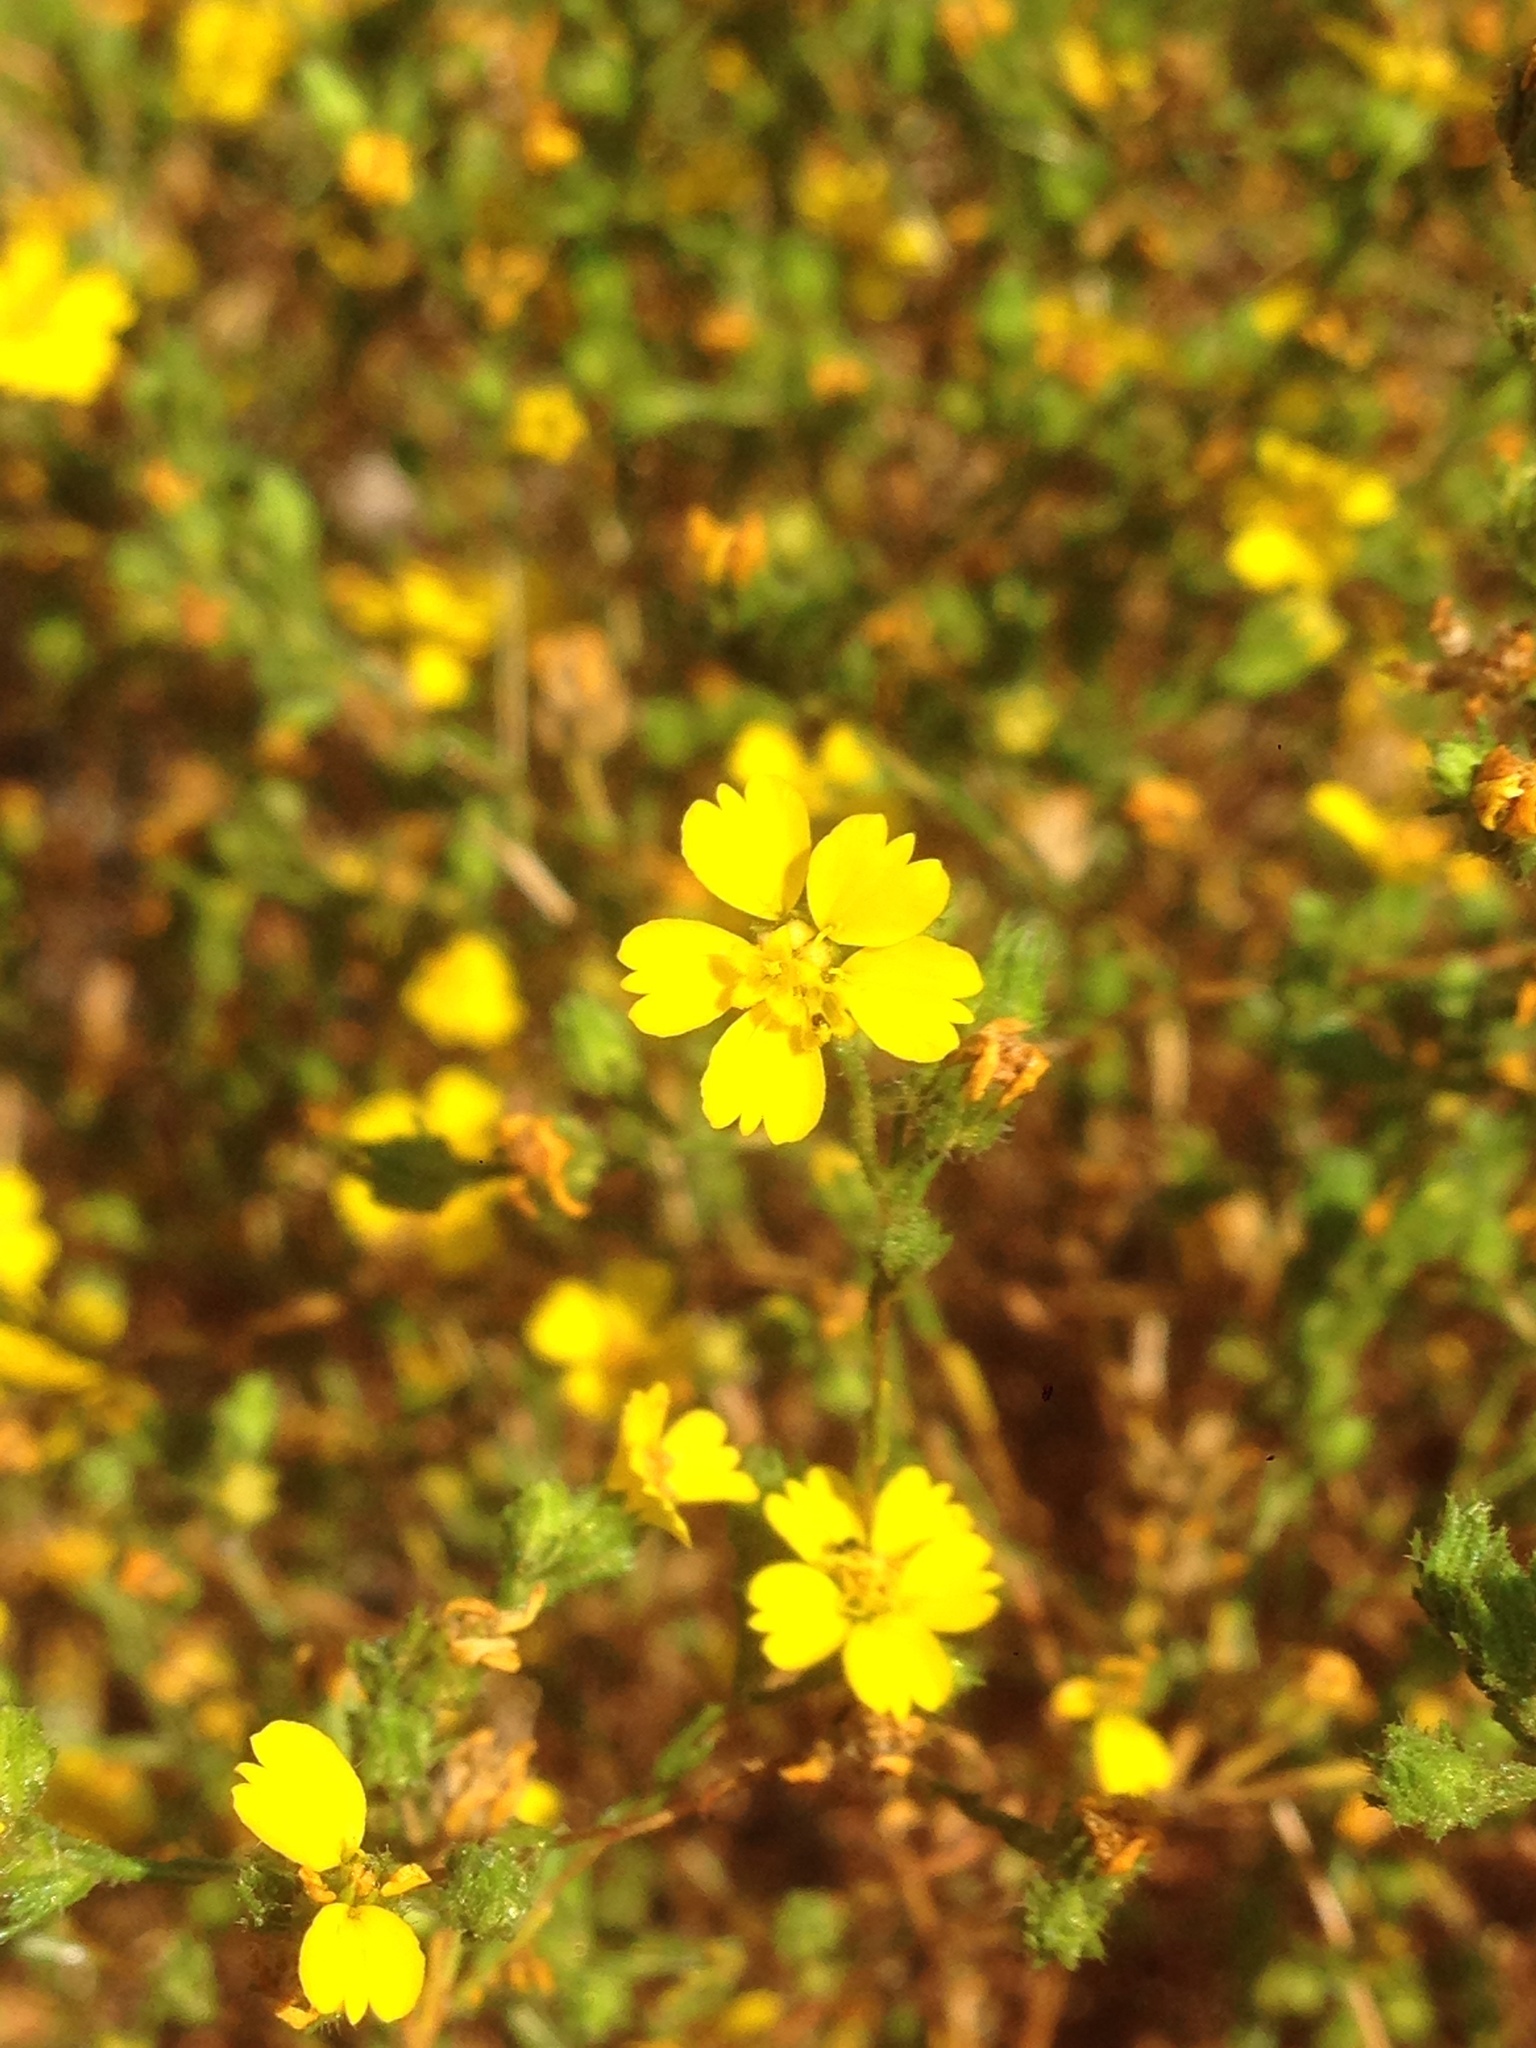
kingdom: Plantae
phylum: Tracheophyta
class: Magnoliopsida
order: Asterales
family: Asteraceae
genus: Deinandra
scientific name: Deinandra fasciculata
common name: Clustered tarweed
